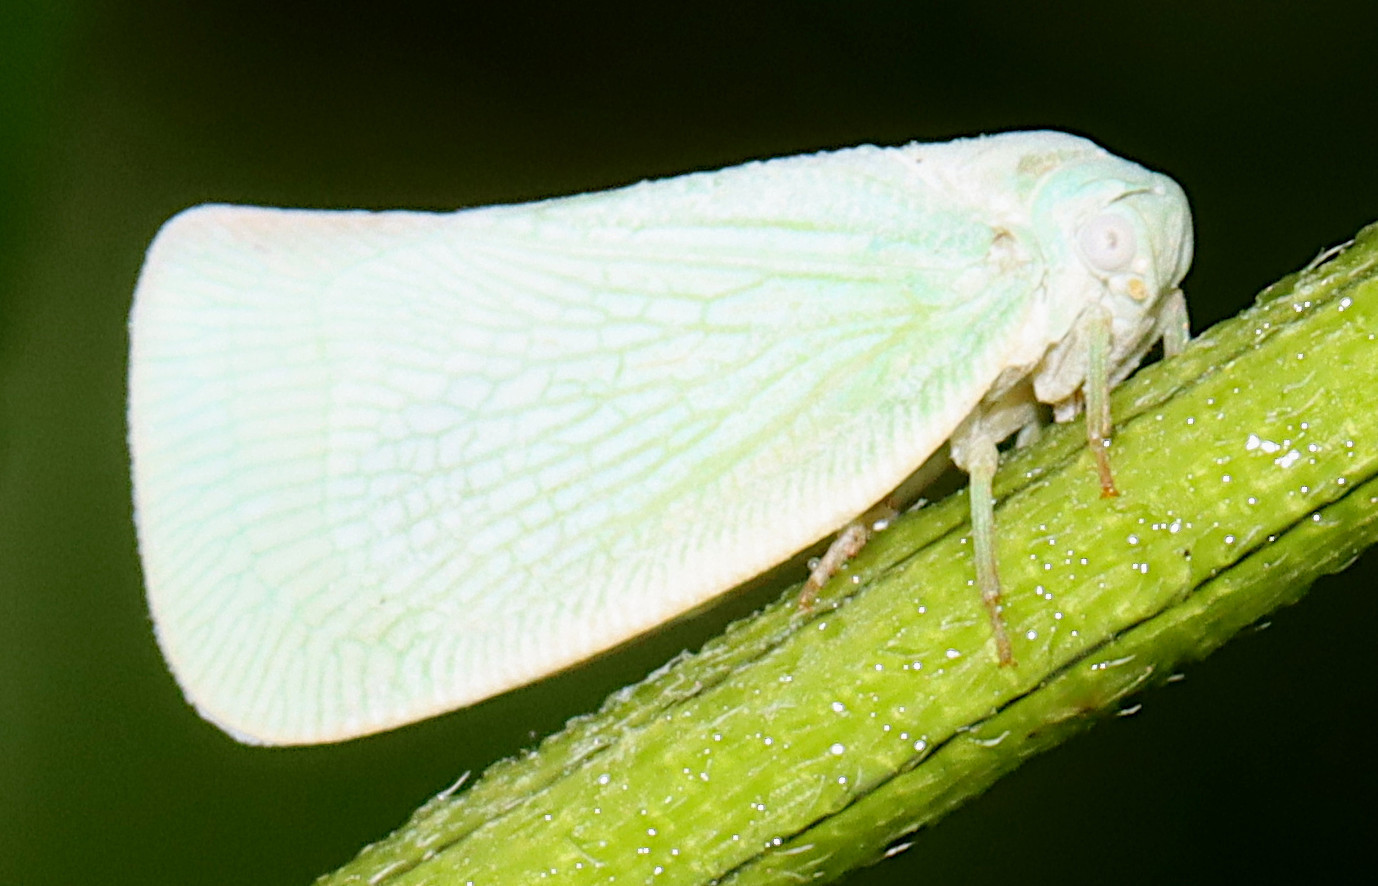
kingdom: Animalia
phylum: Arthropoda
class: Insecta
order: Hemiptera
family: Flatidae
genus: Flatormenis
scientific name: Flatormenis proxima
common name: Northern flatid planthopper
